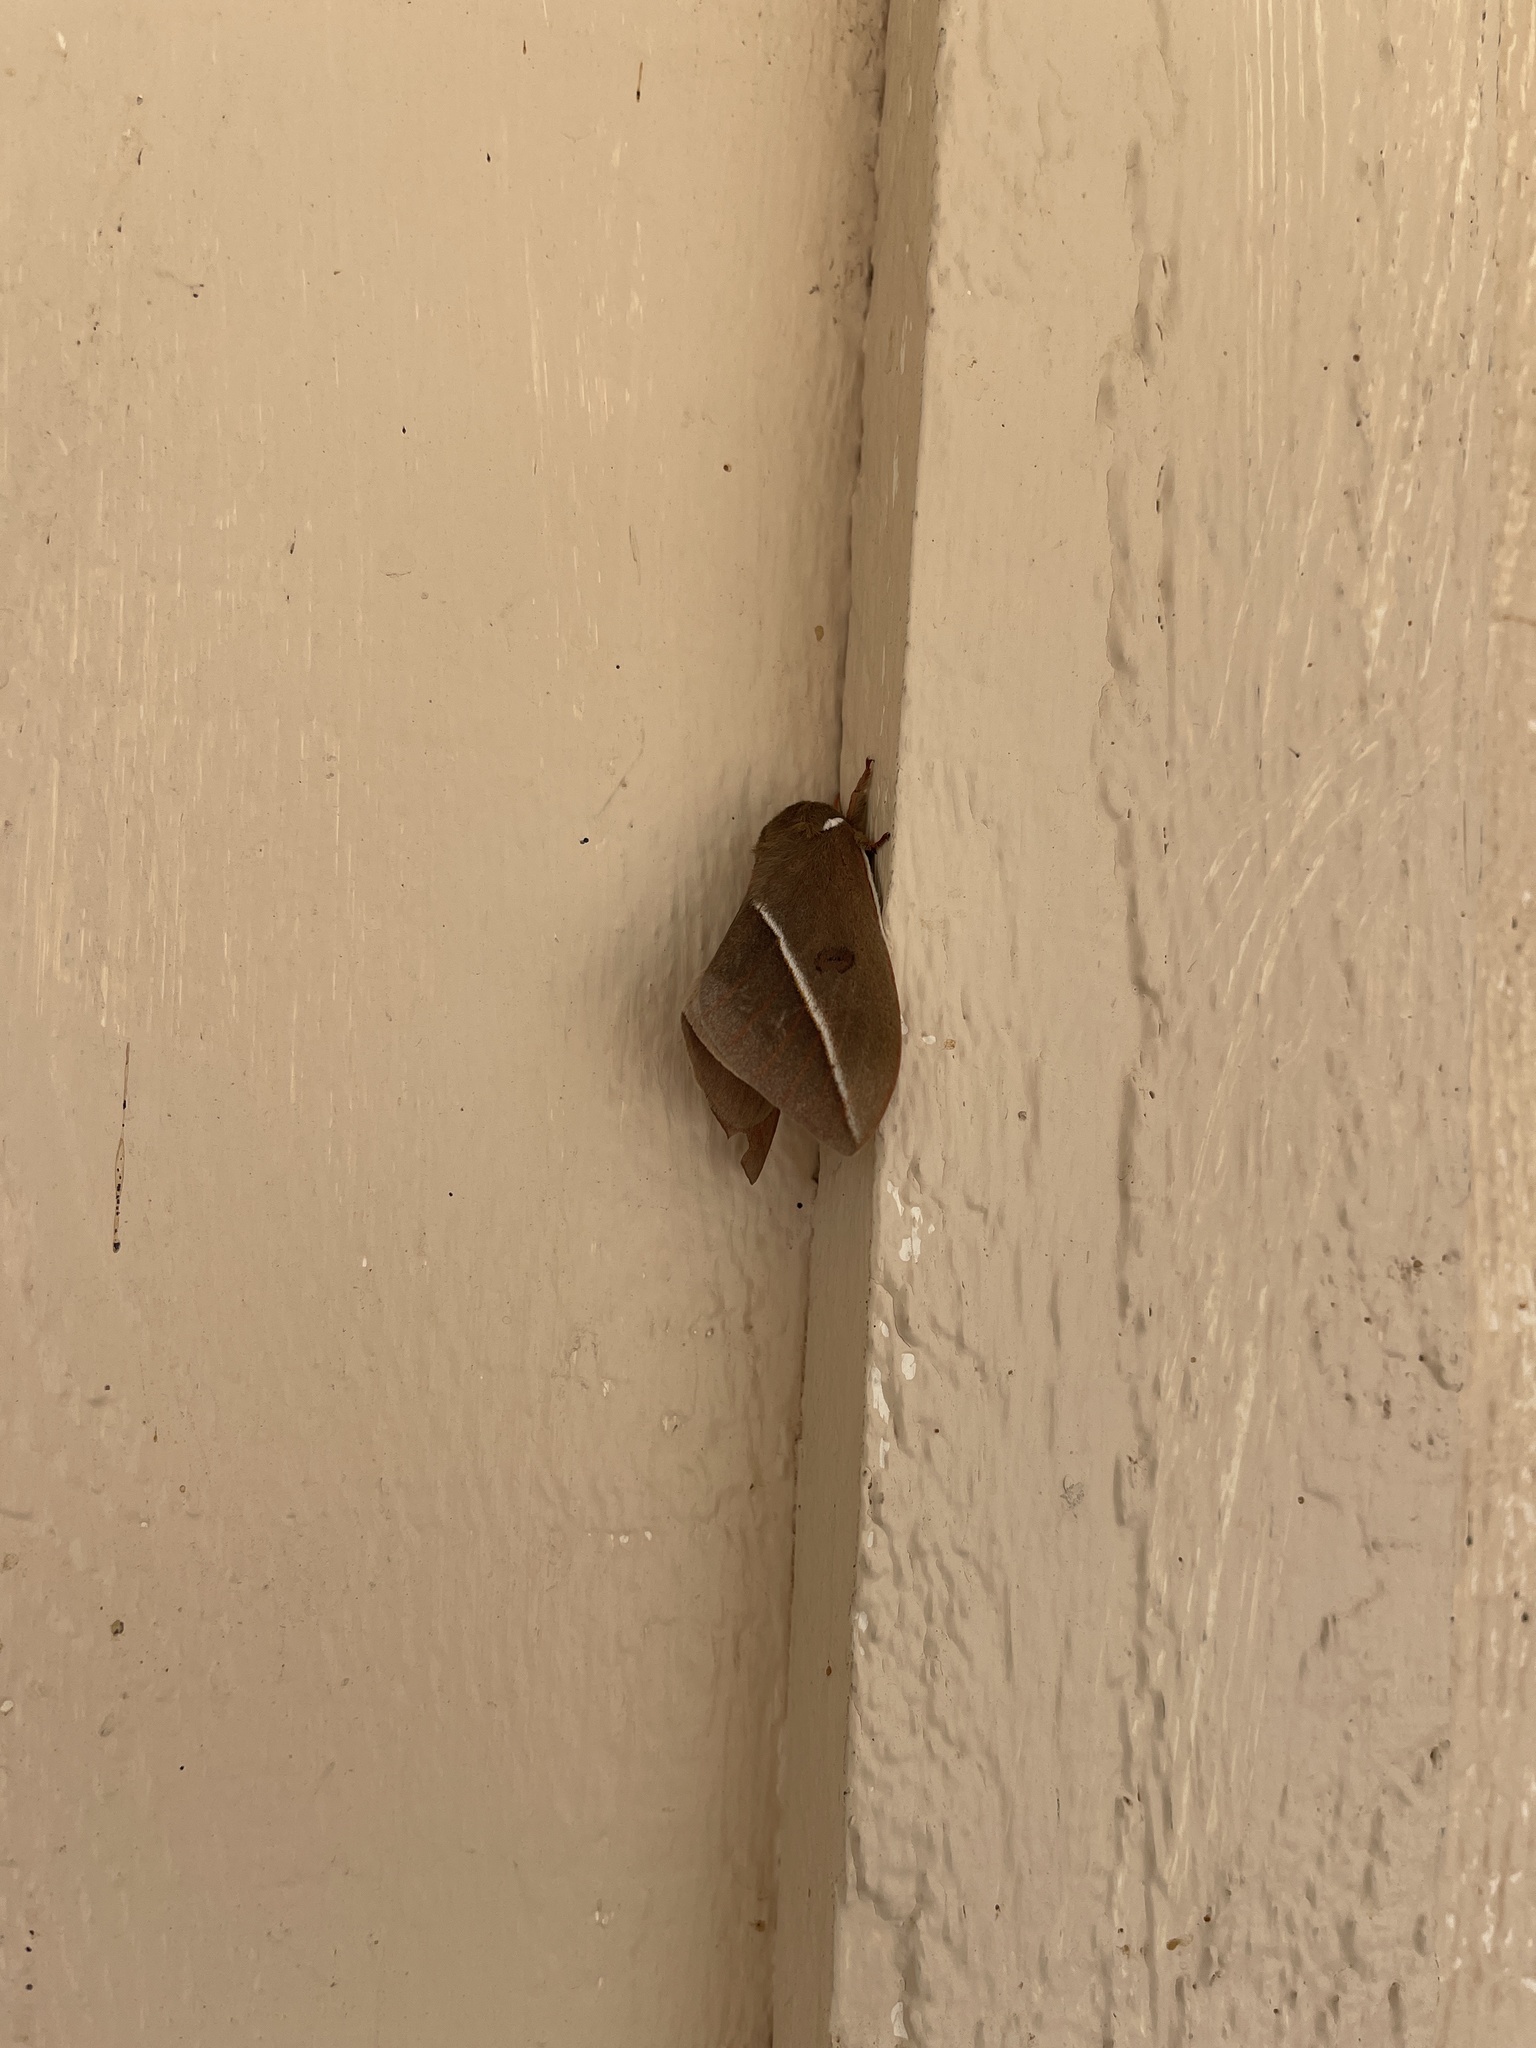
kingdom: Animalia
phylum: Arthropoda
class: Insecta
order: Lepidoptera
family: Saturniidae
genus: Automeris
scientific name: Automeris zephyria
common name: Zephyr eyed silkmoth
